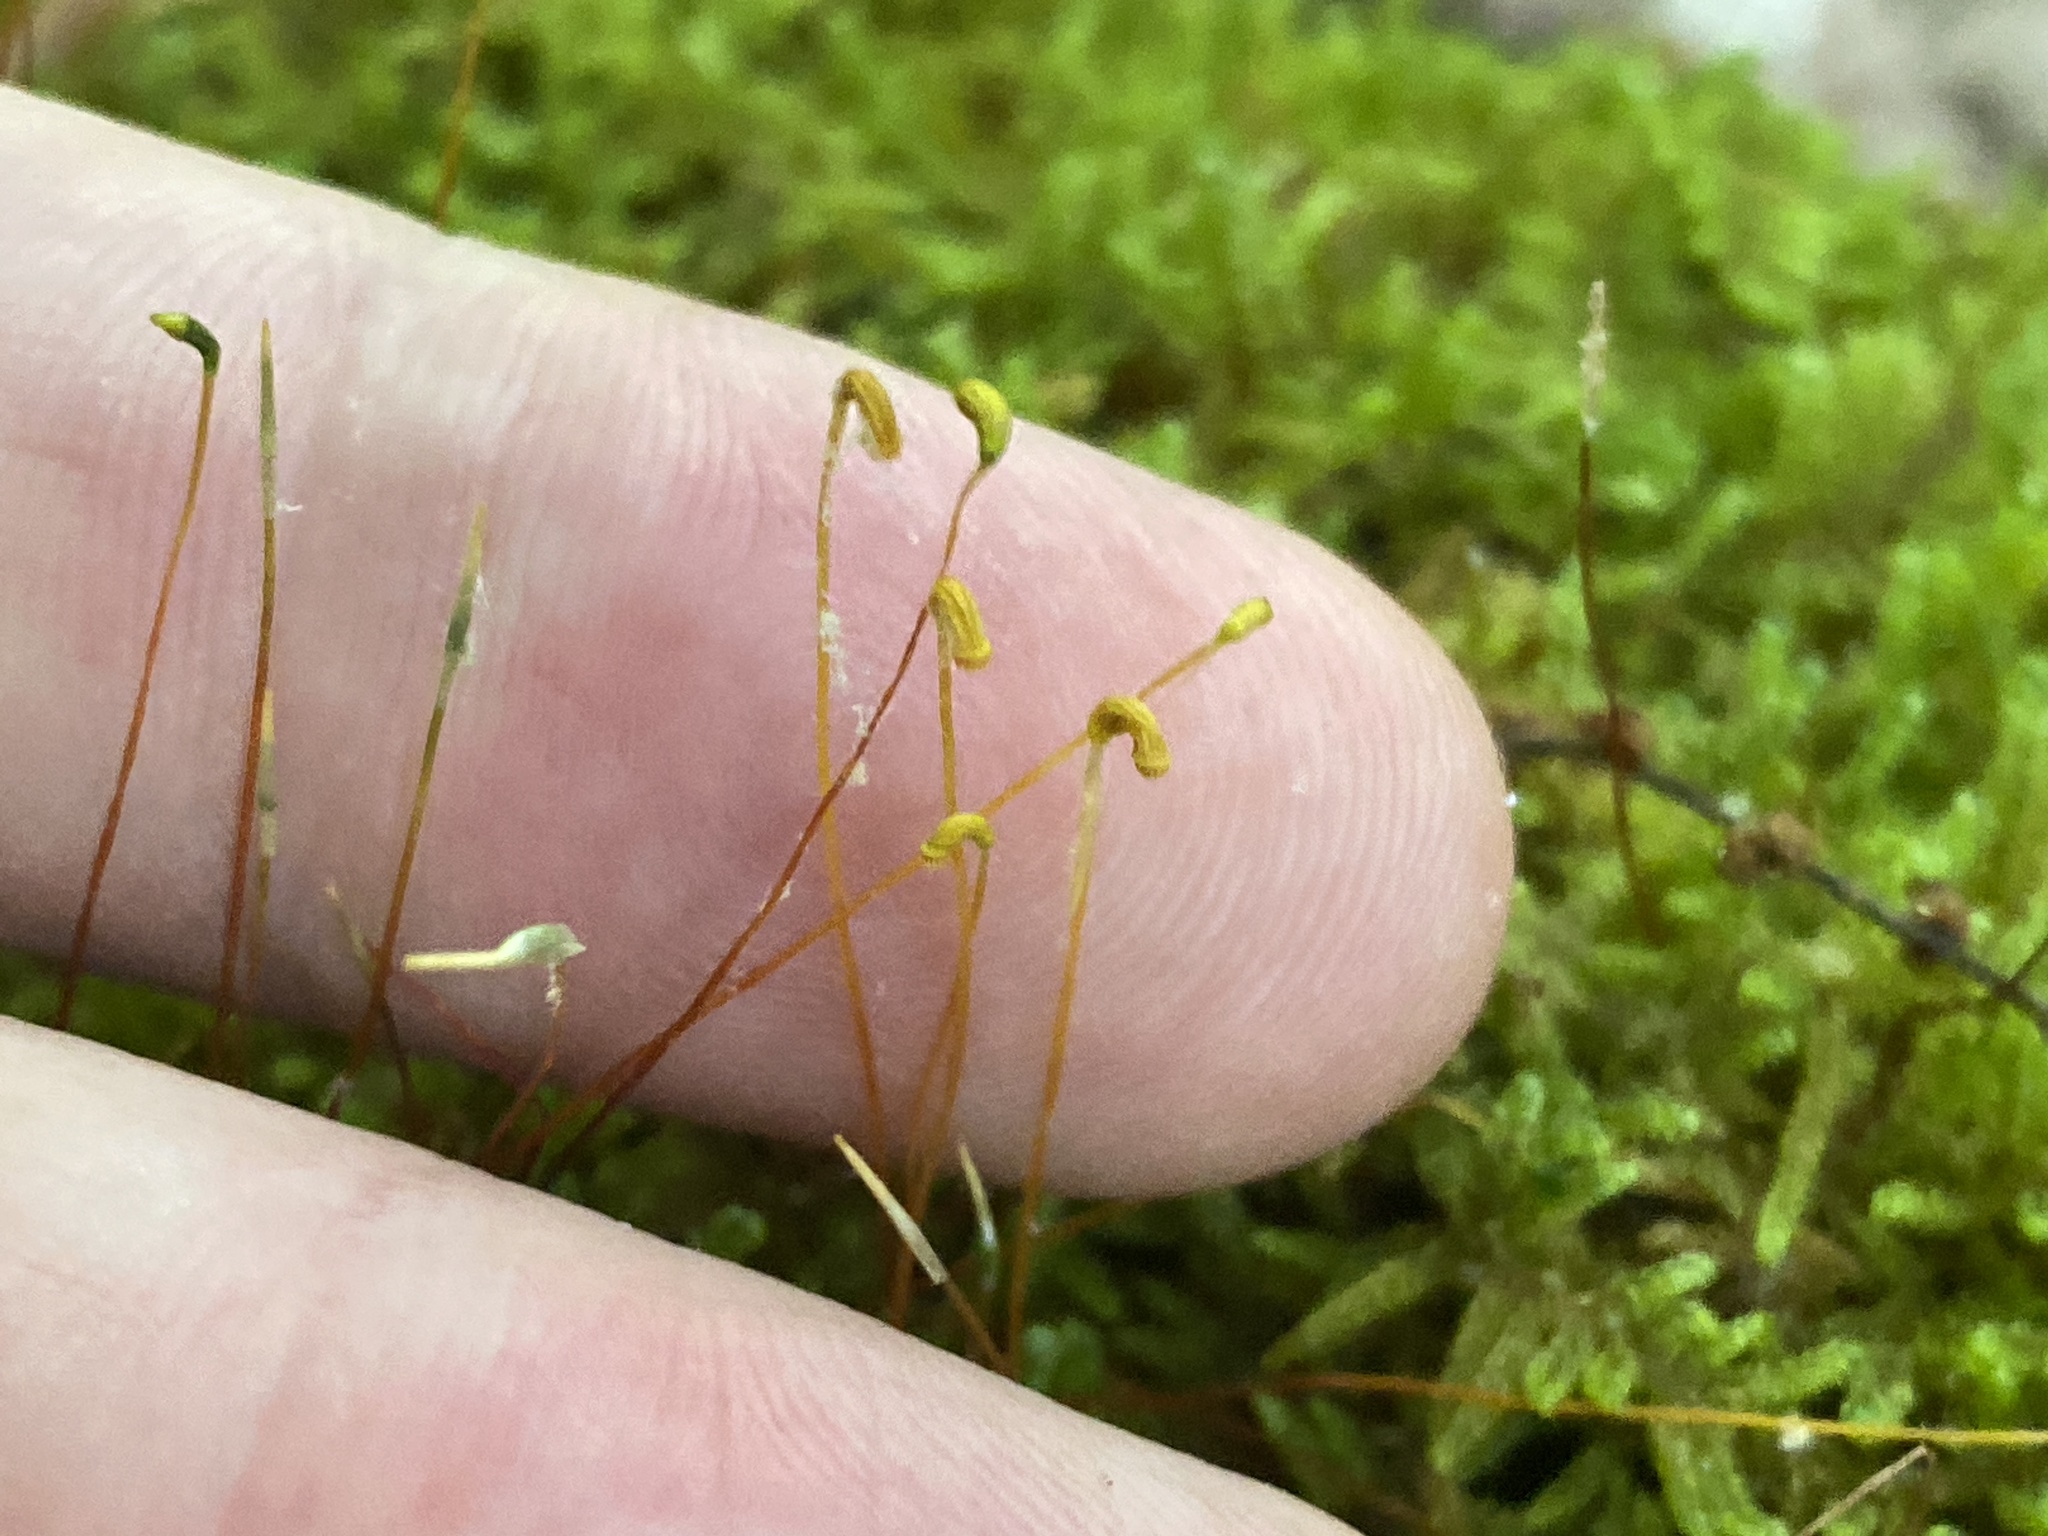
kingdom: Plantae
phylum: Bryophyta
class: Bryopsida
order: Hypnales
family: Callicladiaceae
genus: Callicladium
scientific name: Callicladium imponens
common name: Brocade moss
